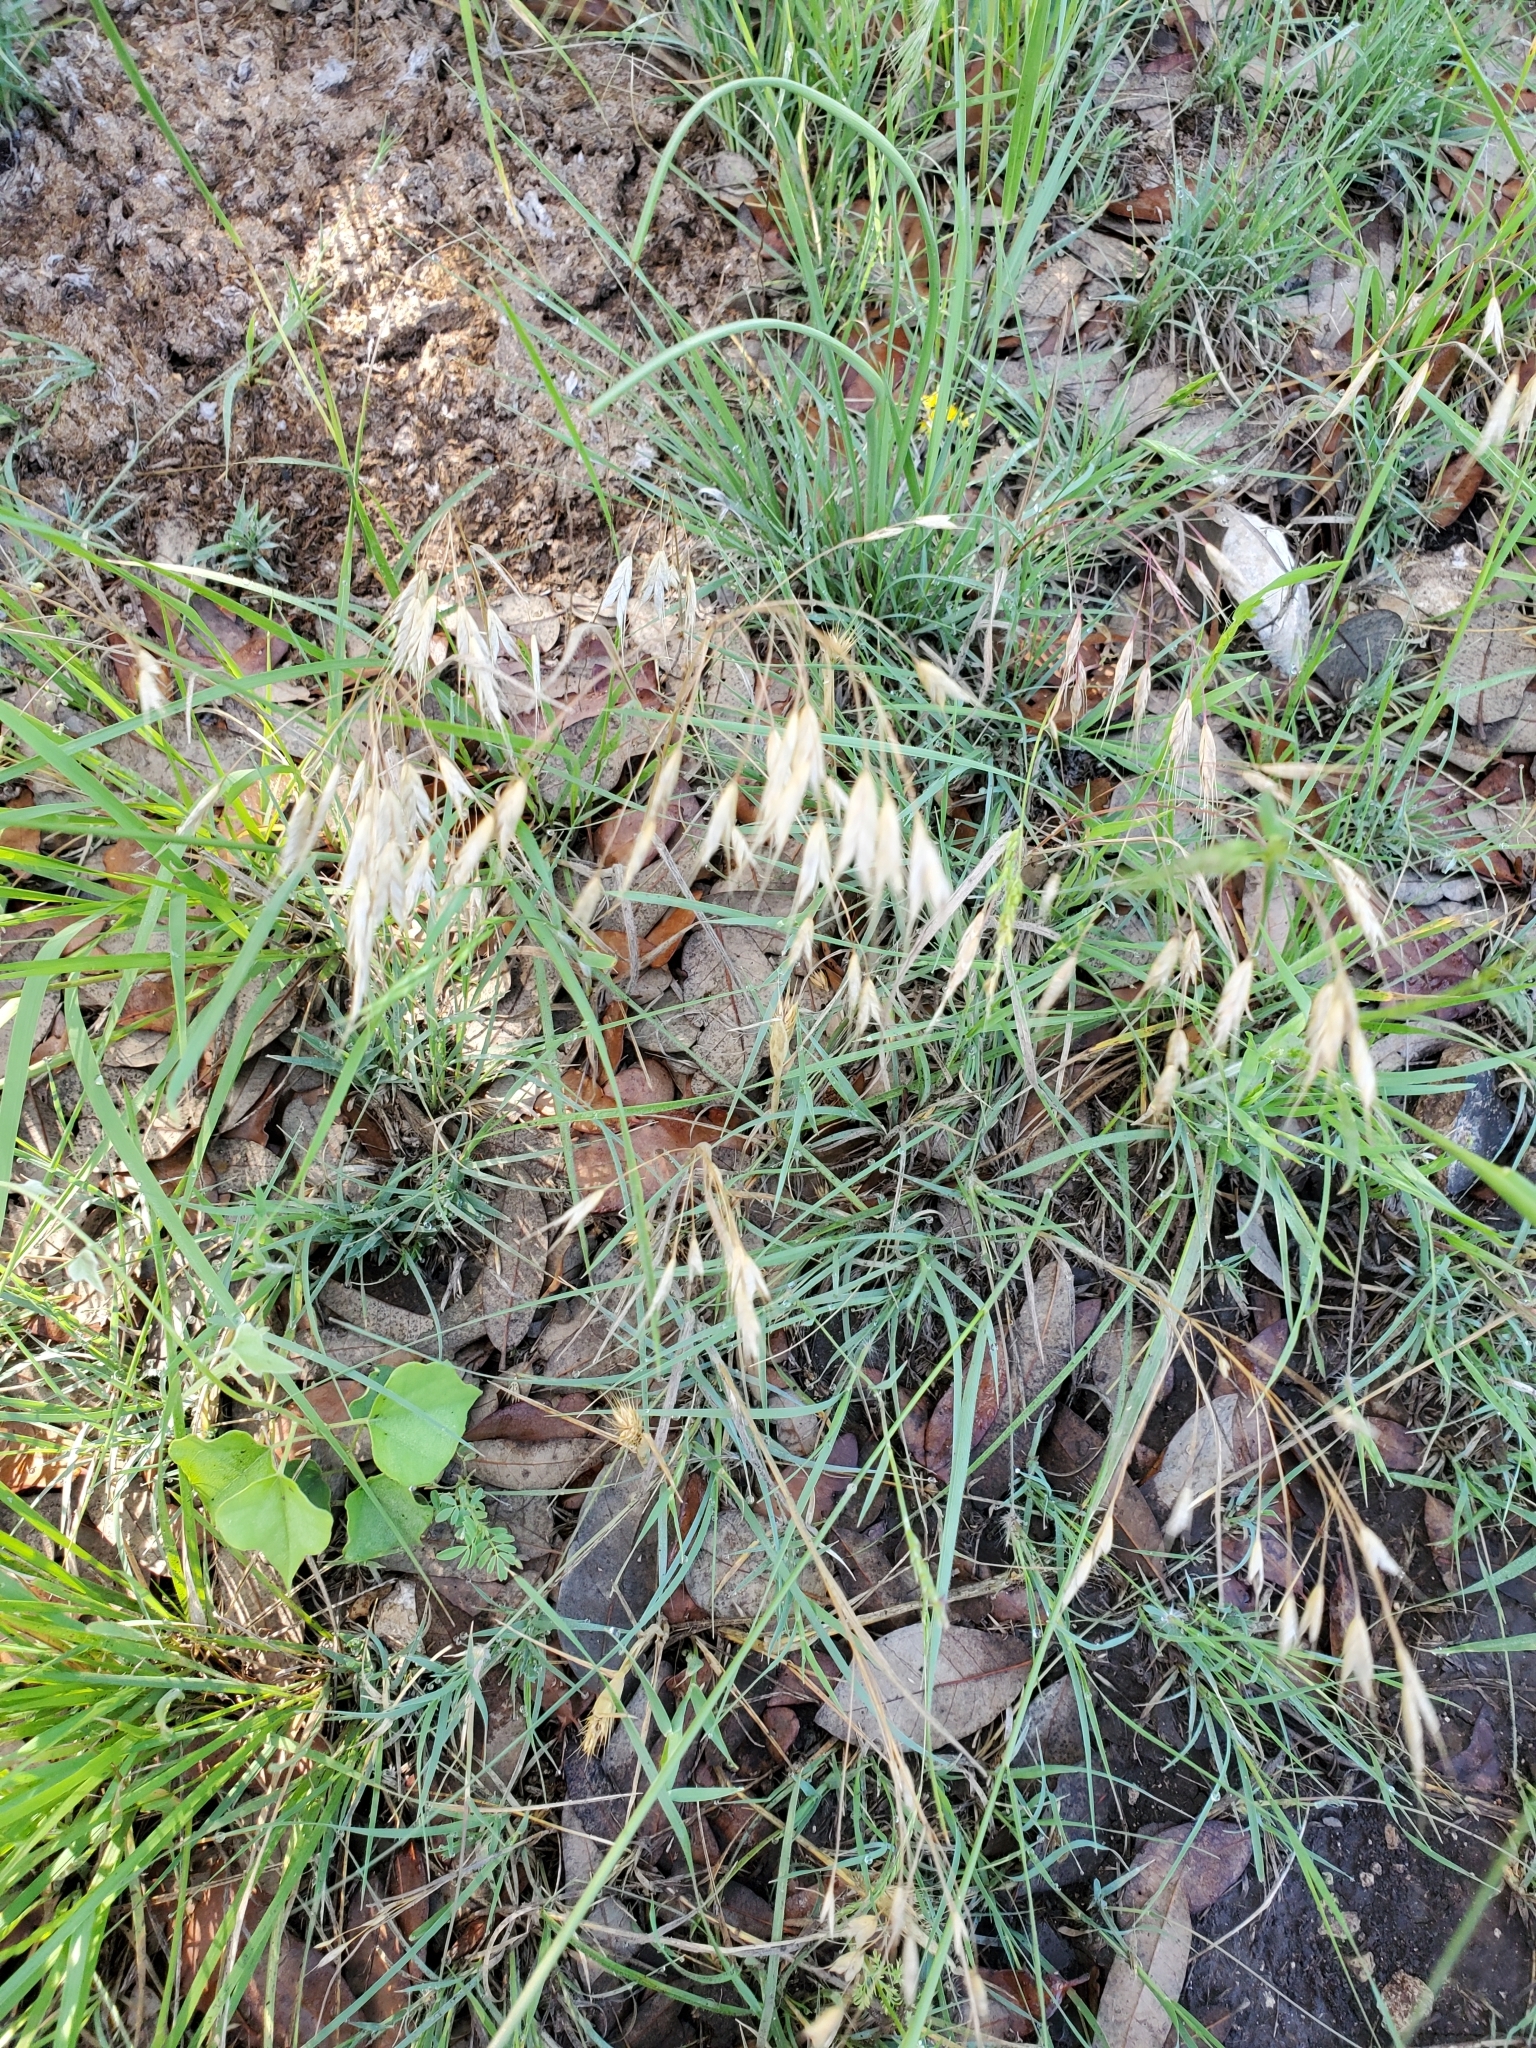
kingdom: Plantae
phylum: Tracheophyta
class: Liliopsida
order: Poales
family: Poaceae
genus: Bromus
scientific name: Bromus japonicus
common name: Japanese brome
